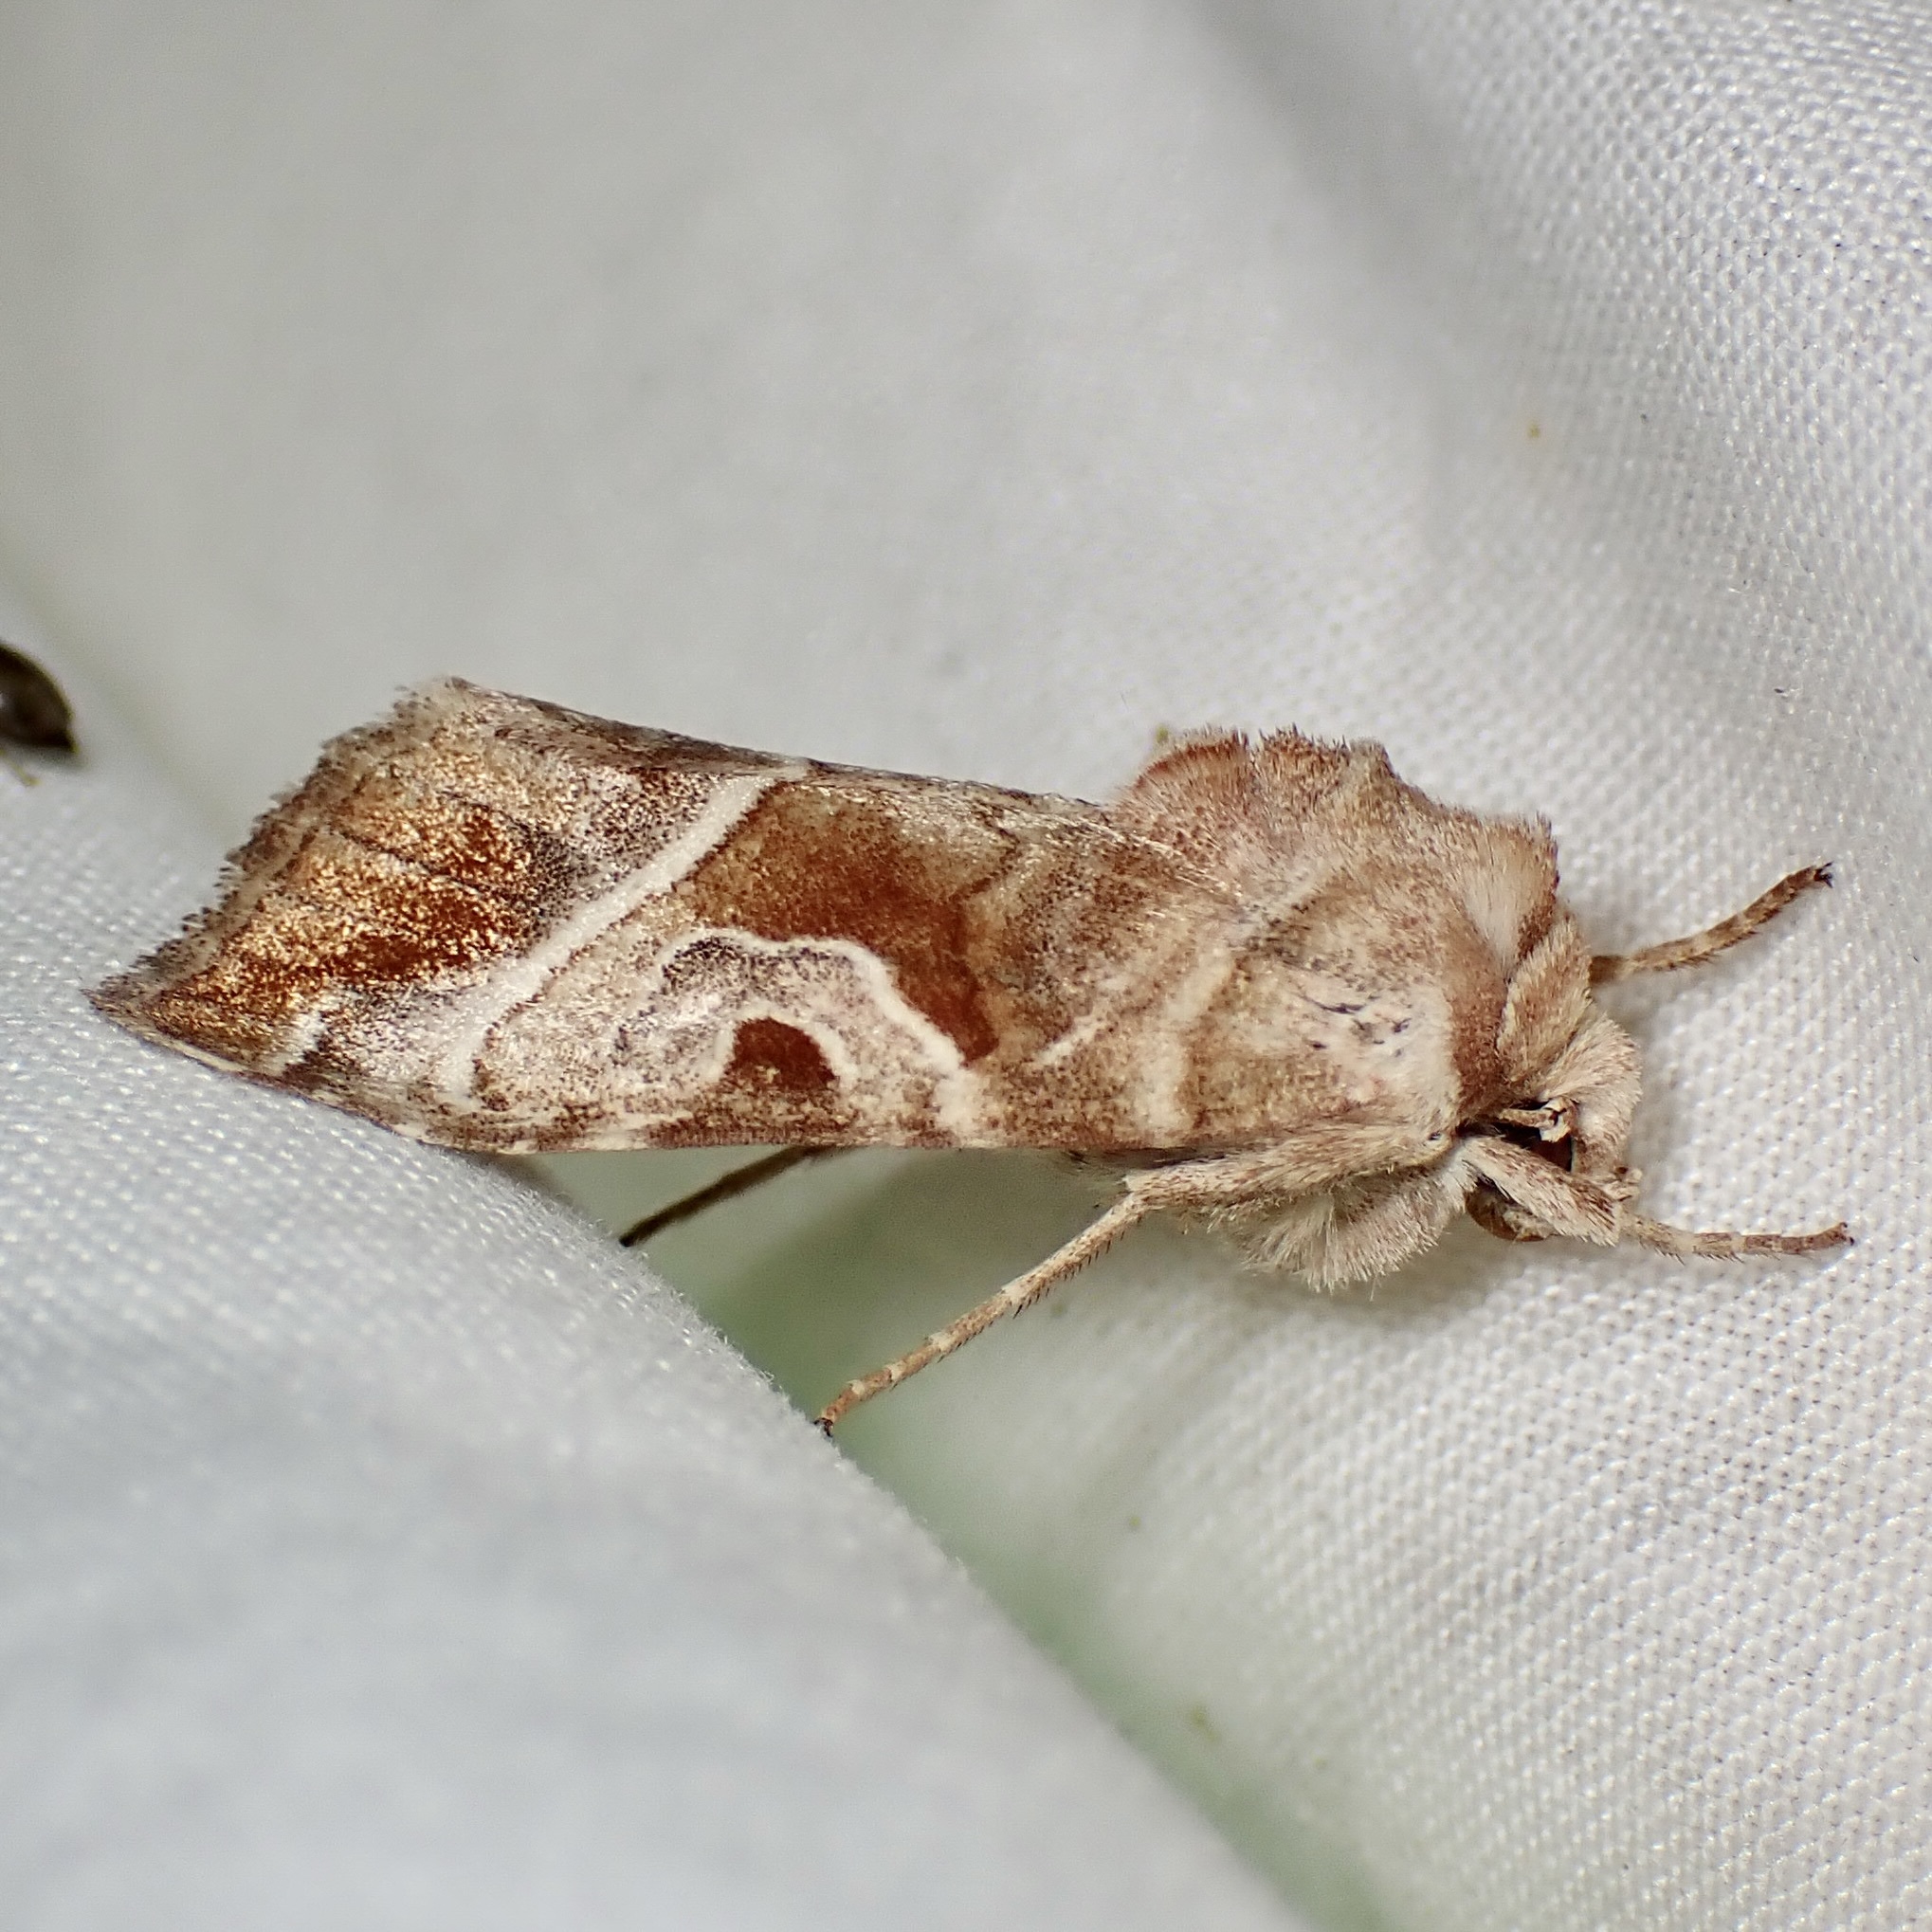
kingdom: Animalia
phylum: Arthropoda
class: Insecta
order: Lepidoptera
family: Noctuidae
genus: Hexorthodes
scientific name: Hexorthodes accurata
